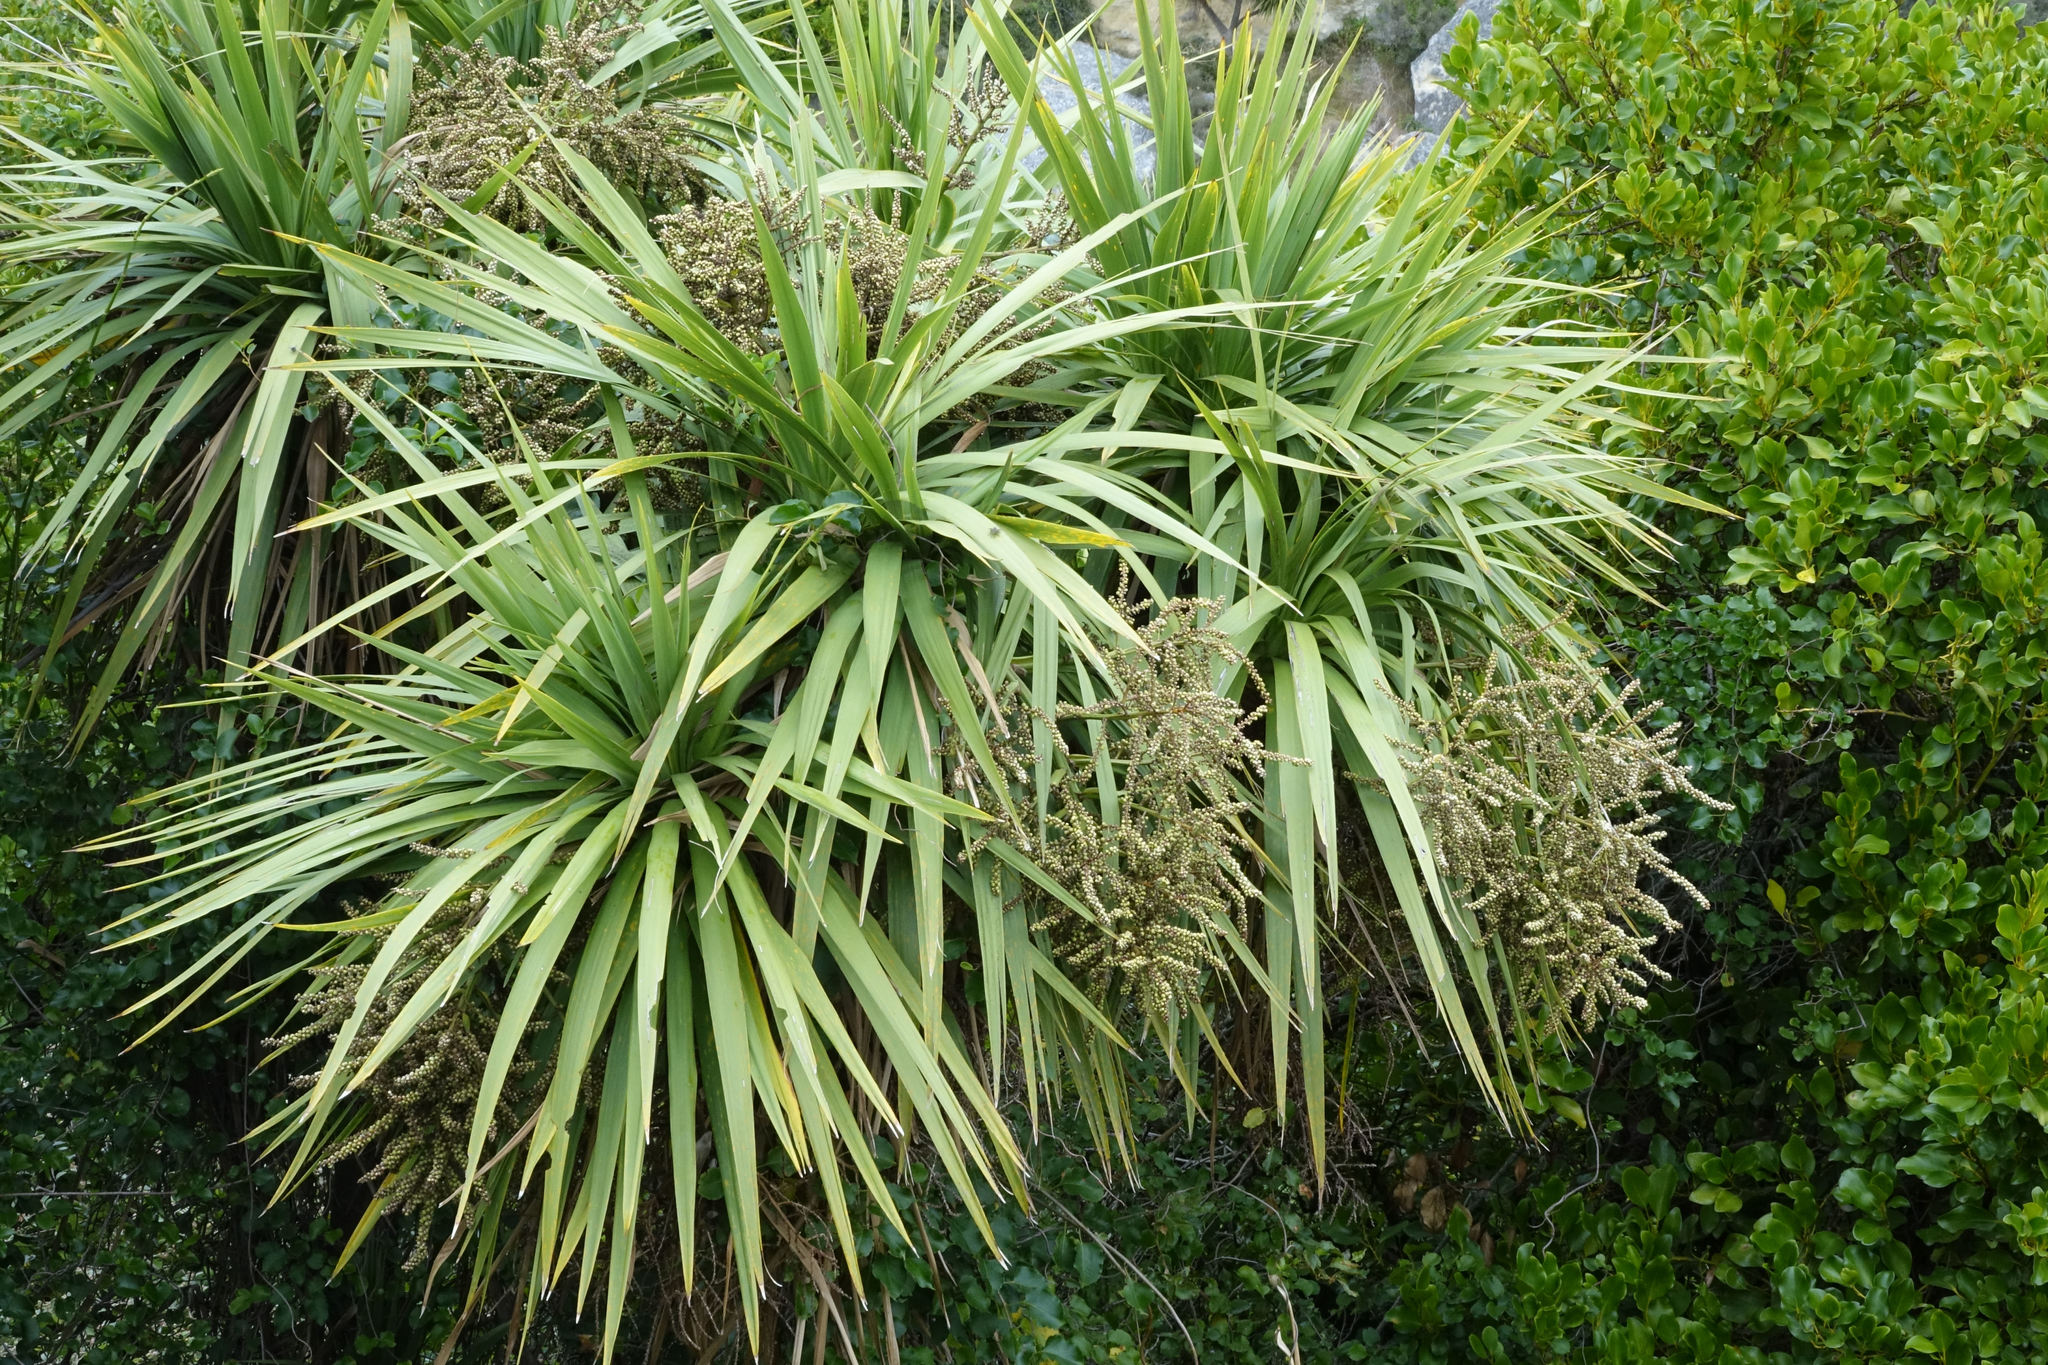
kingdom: Plantae
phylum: Tracheophyta
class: Liliopsida
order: Asparagales
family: Asparagaceae
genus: Cordyline
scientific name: Cordyline australis
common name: Cabbage-palm
